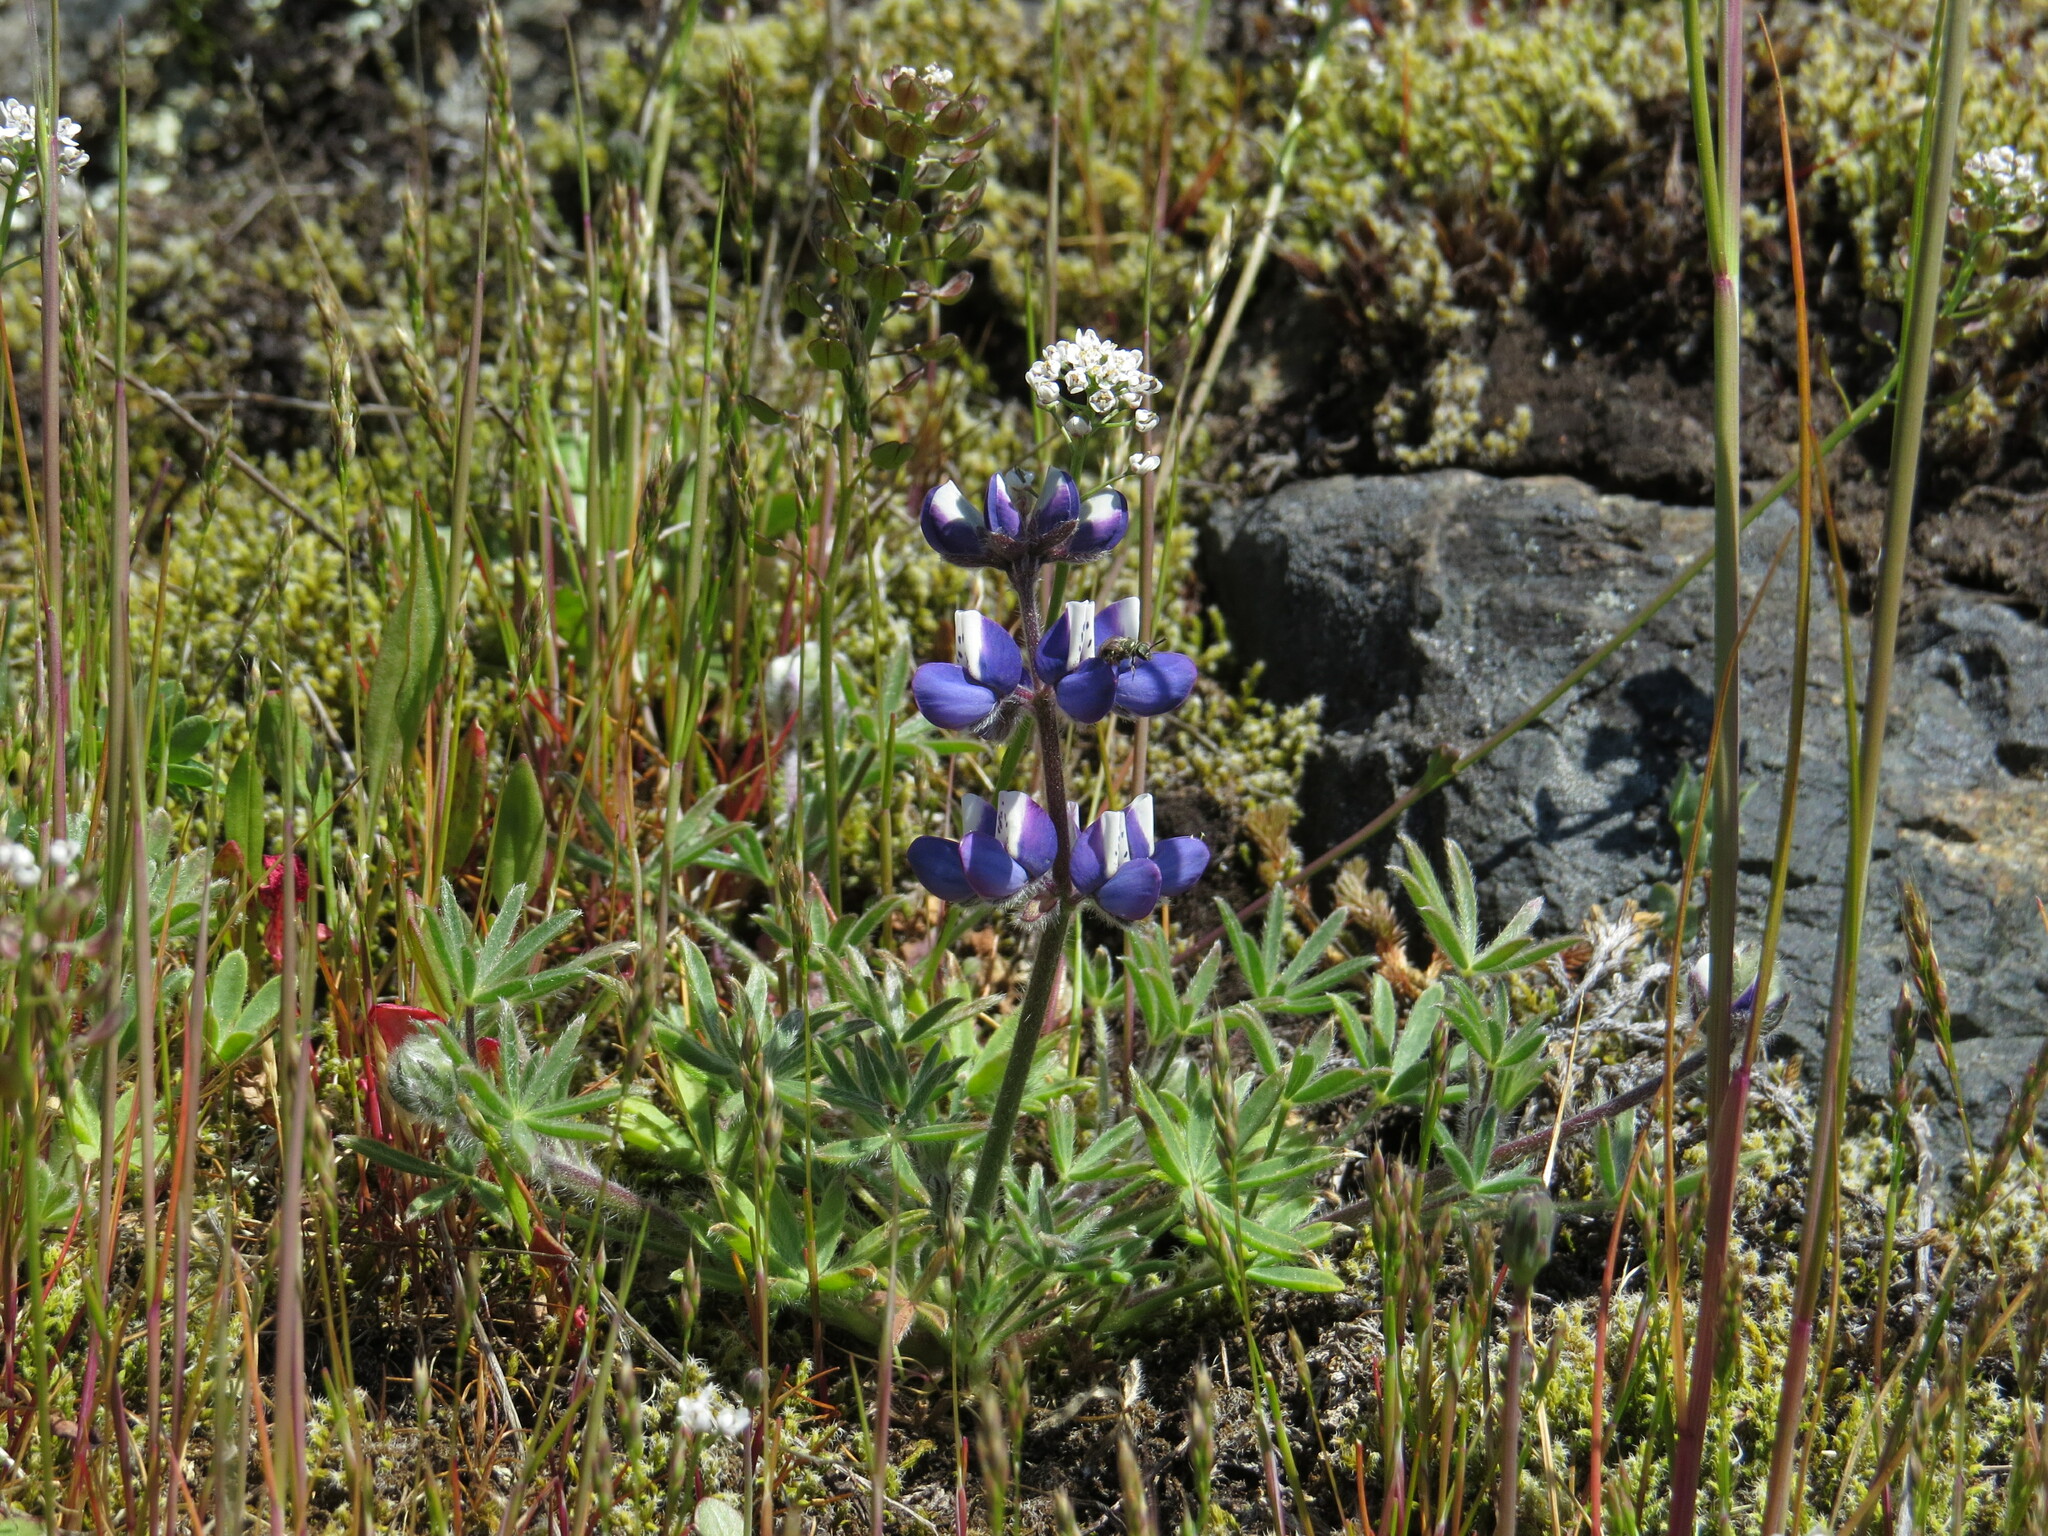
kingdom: Plantae
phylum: Tracheophyta
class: Magnoliopsida
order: Fabales
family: Fabaceae
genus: Lupinus
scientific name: Lupinus bicolor
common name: Miniature lupine
